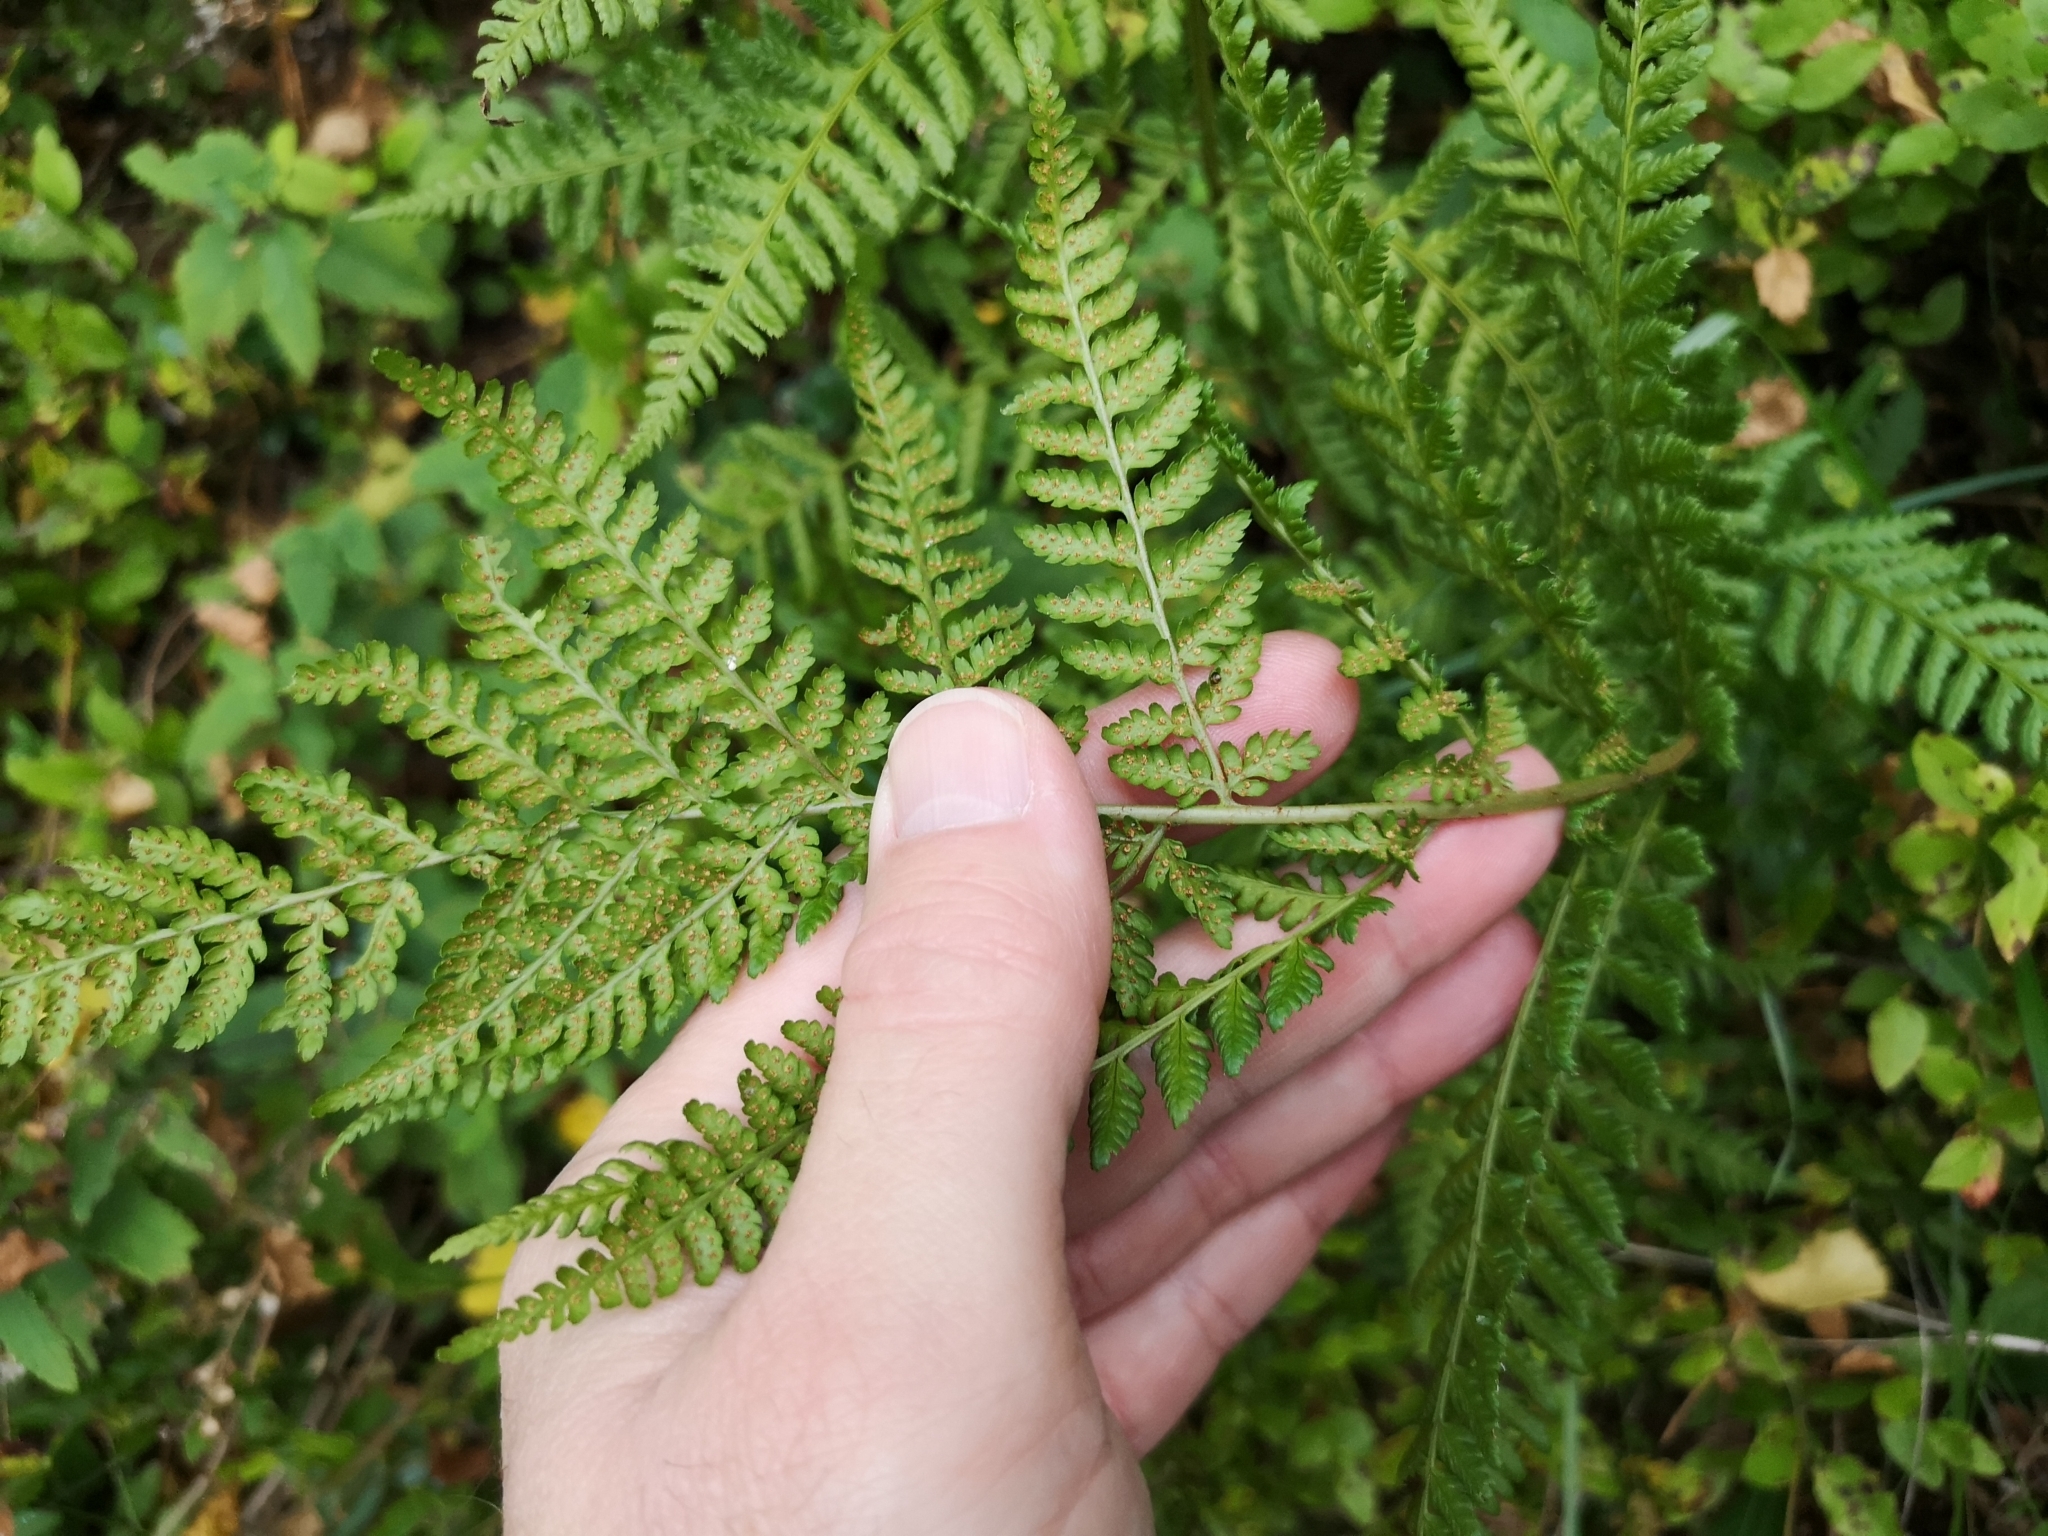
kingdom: Plantae
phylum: Tracheophyta
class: Polypodiopsida
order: Polypodiales
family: Dryopteridaceae
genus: Dryopteris
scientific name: Dryopteris dilatata
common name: Broad buckler-fern
